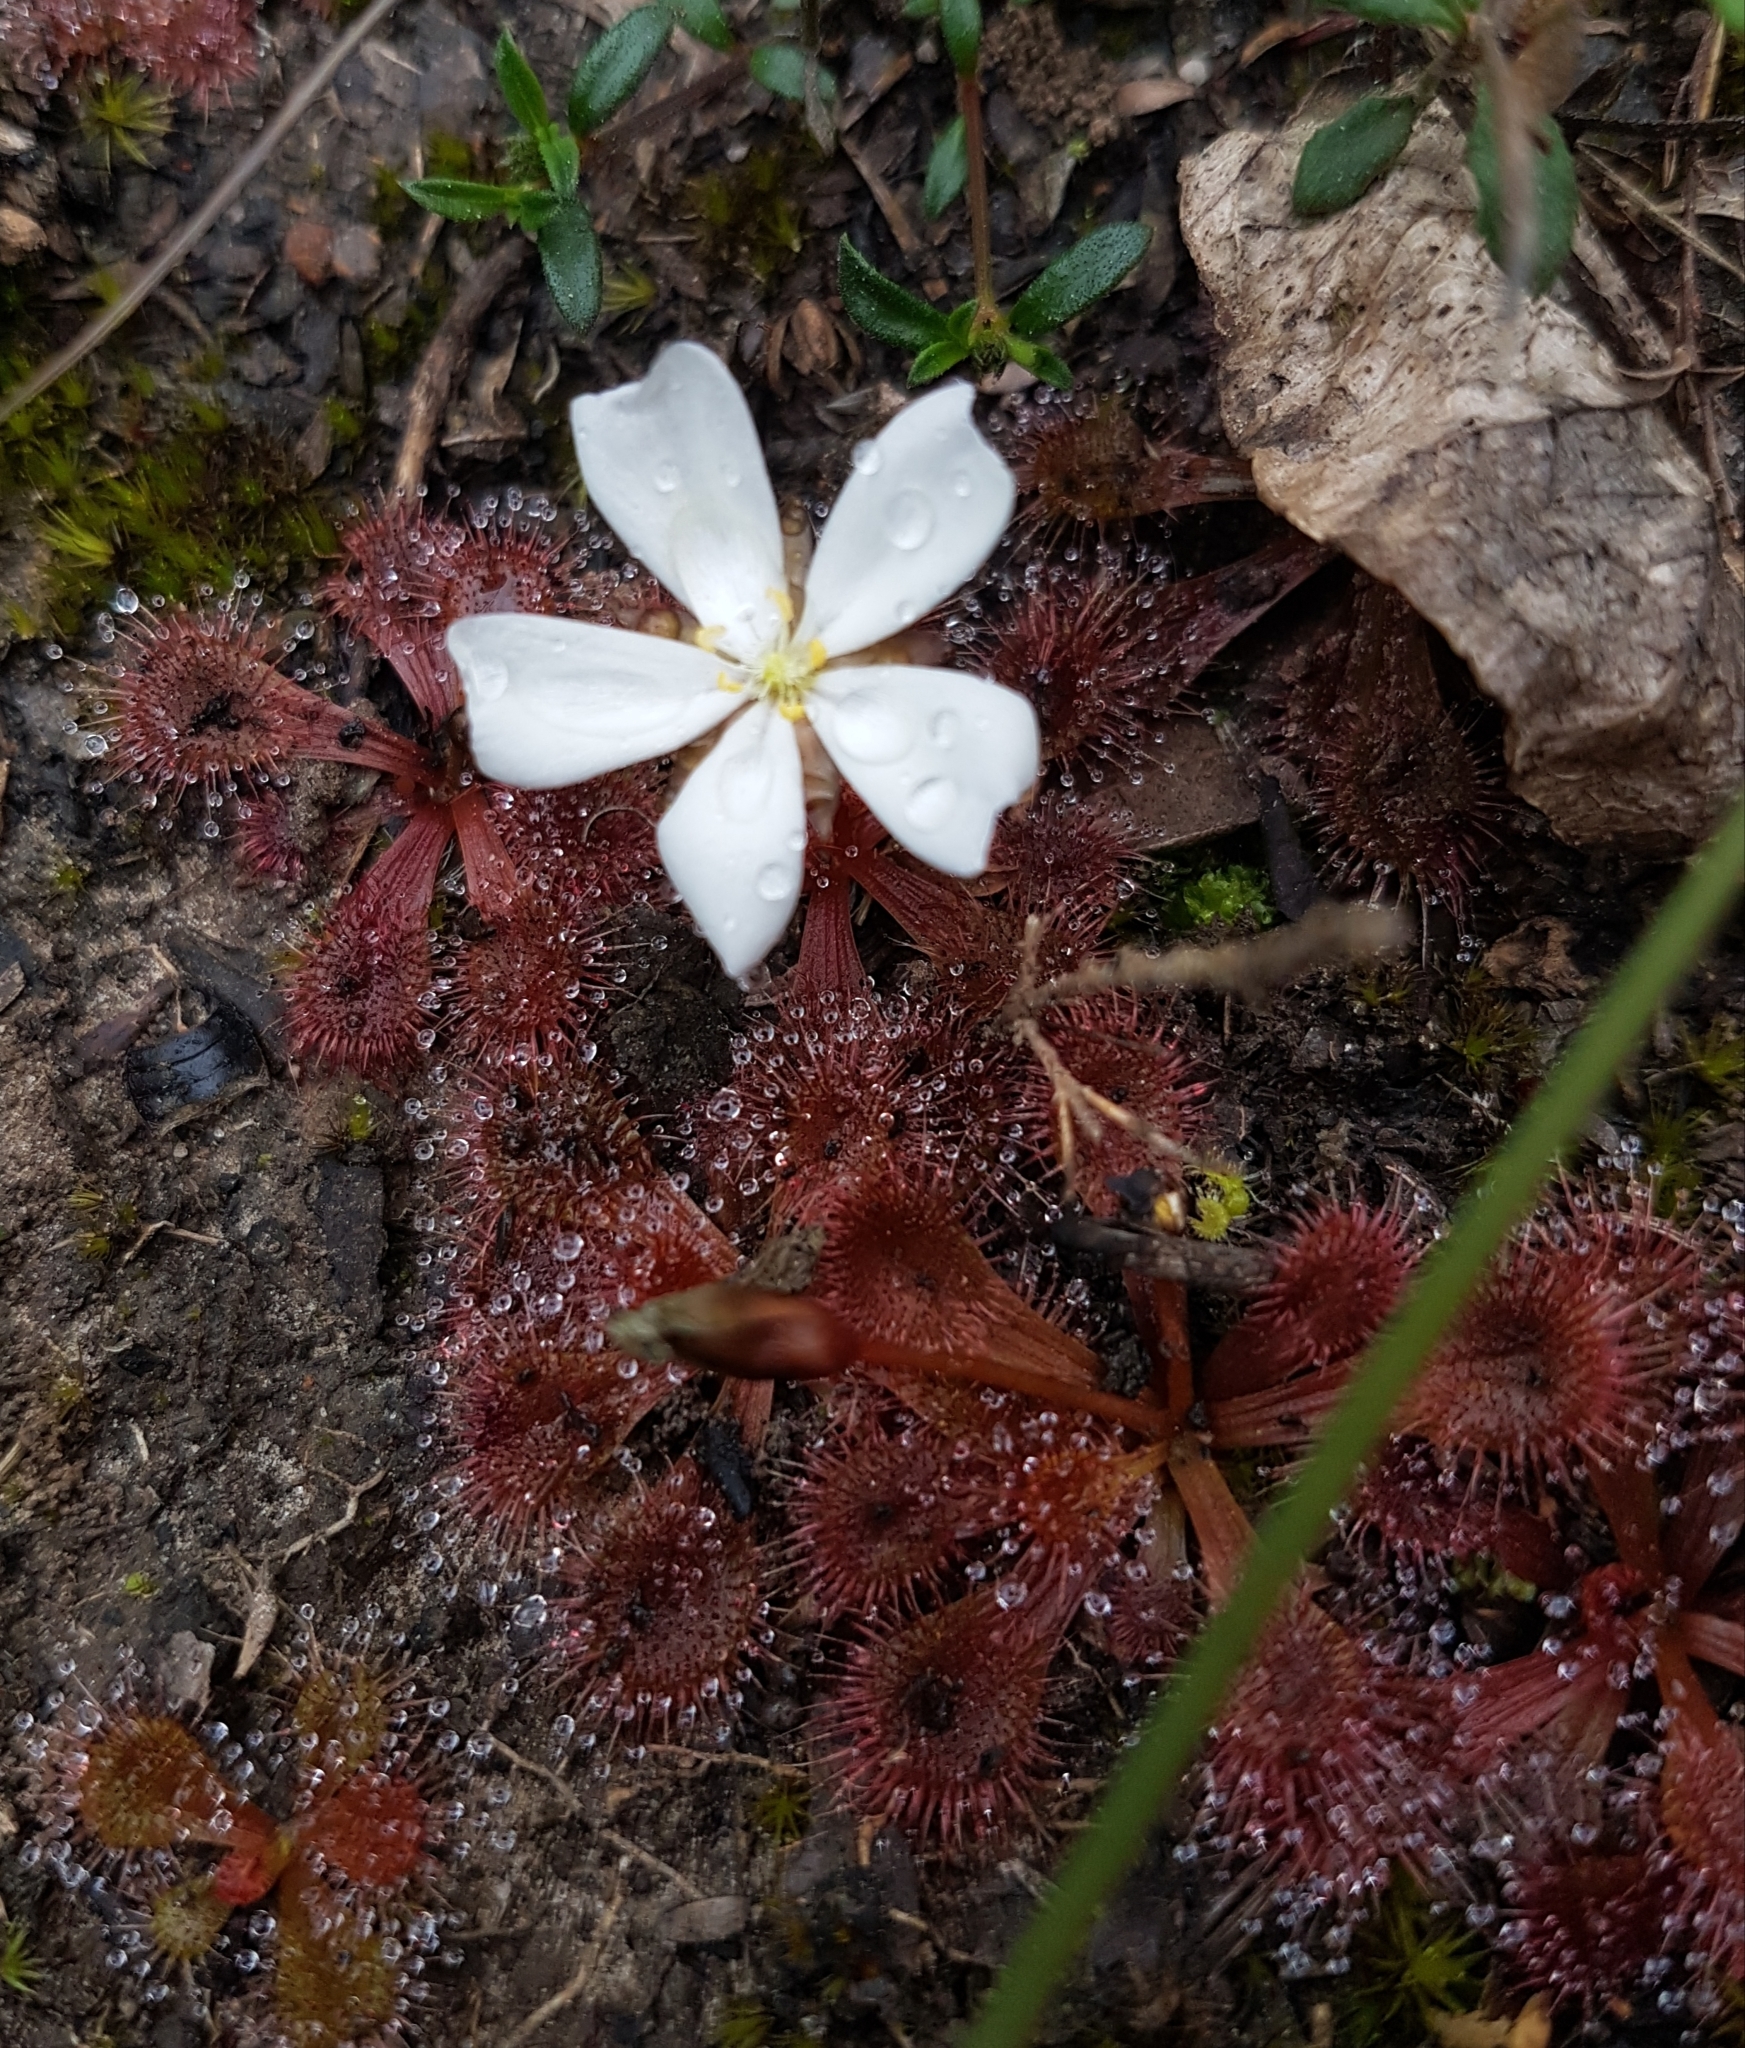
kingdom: Plantae
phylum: Tracheophyta
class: Magnoliopsida
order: Caryophyllales
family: Droseraceae
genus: Drosera
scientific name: Drosera aberrans
